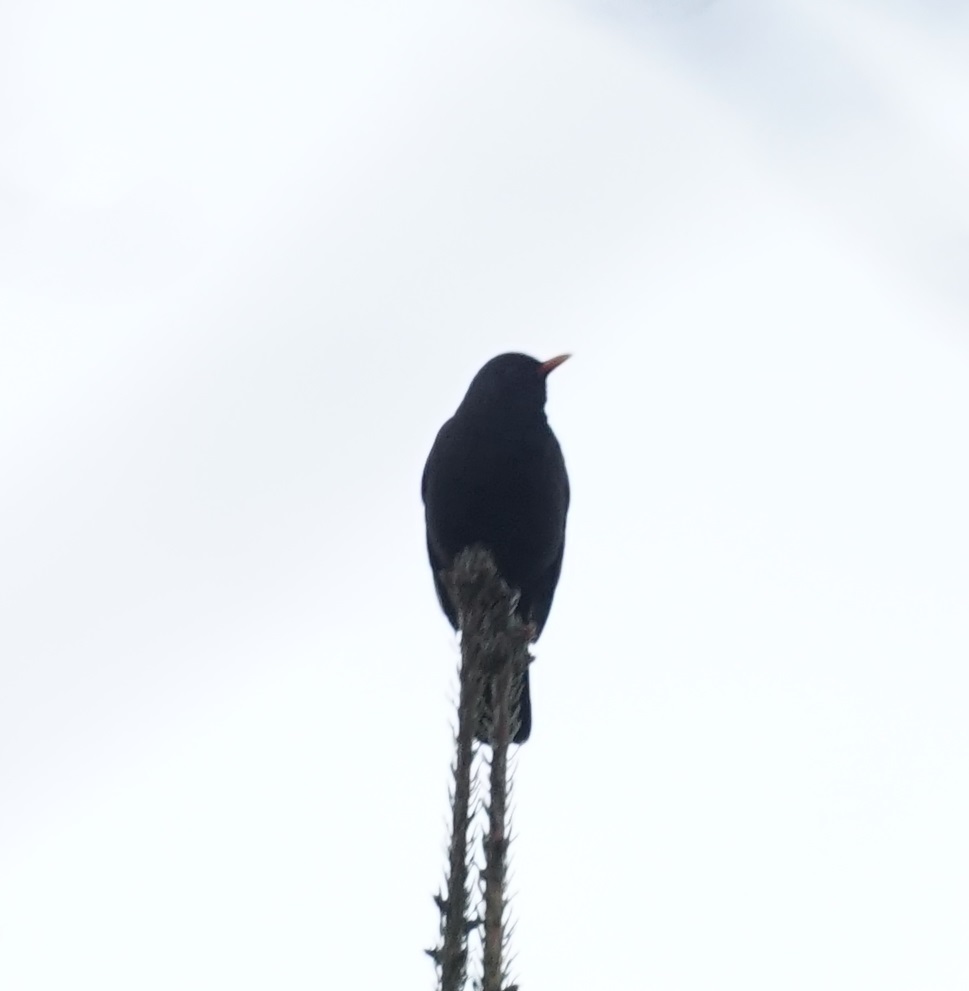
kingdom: Animalia
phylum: Chordata
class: Aves
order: Passeriformes
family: Turdidae
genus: Turdus
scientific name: Turdus merula
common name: Common blackbird
